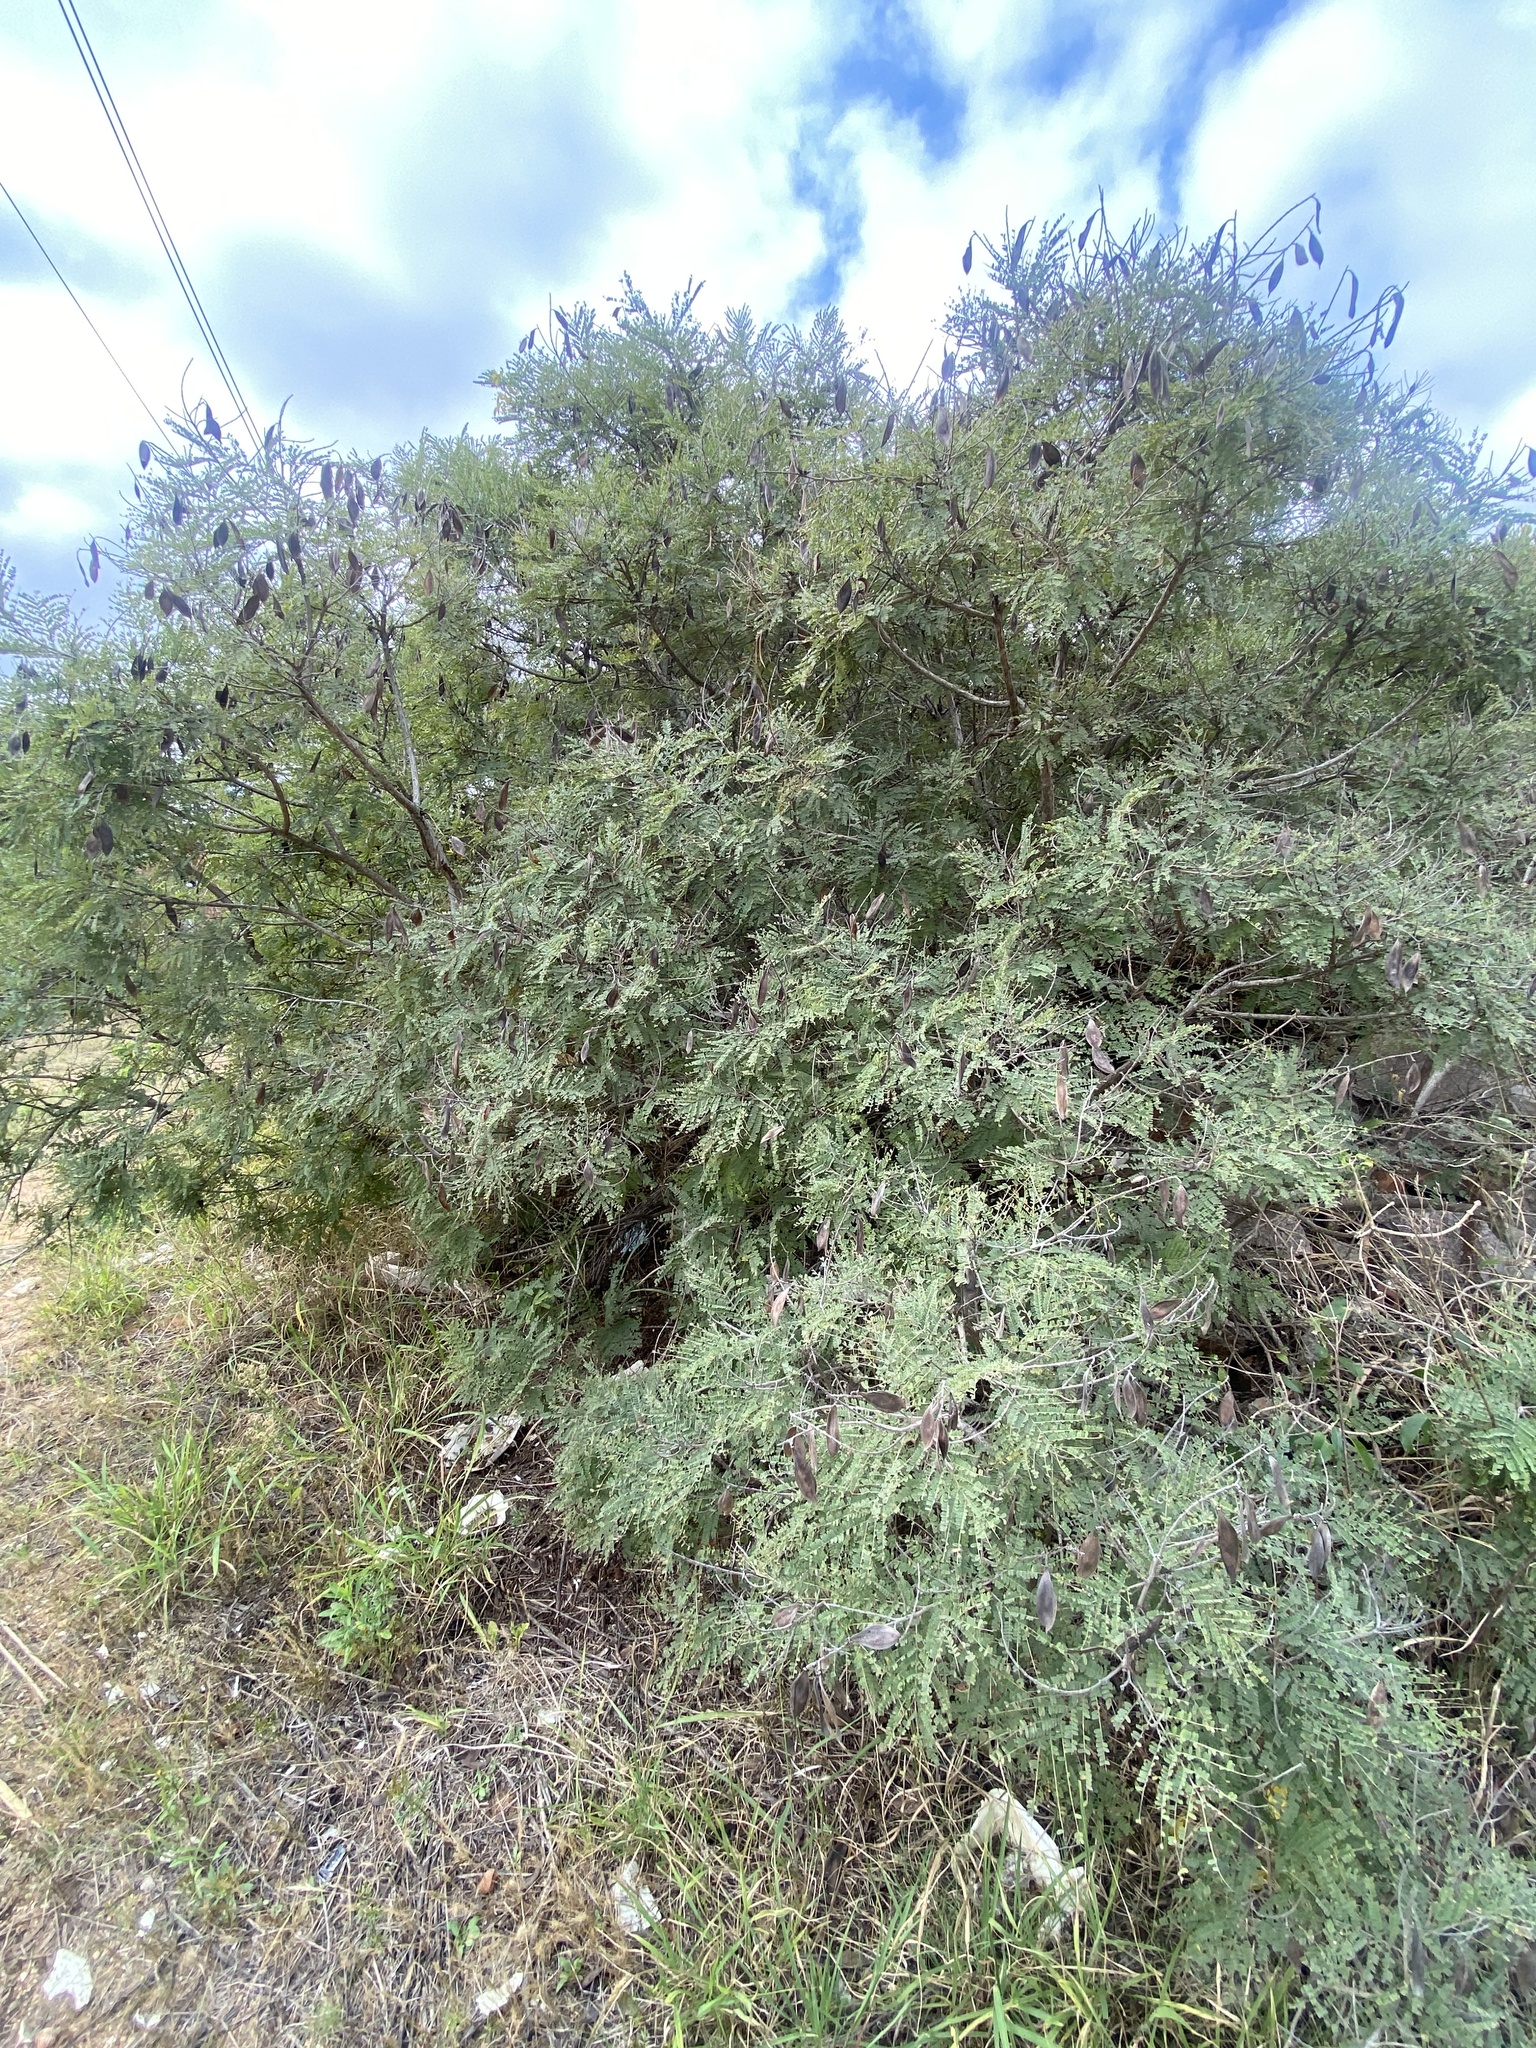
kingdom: Plantae
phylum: Tracheophyta
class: Magnoliopsida
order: Fabales
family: Fabaceae
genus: Peltophorum
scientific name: Peltophorum africanum
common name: African black wattle
